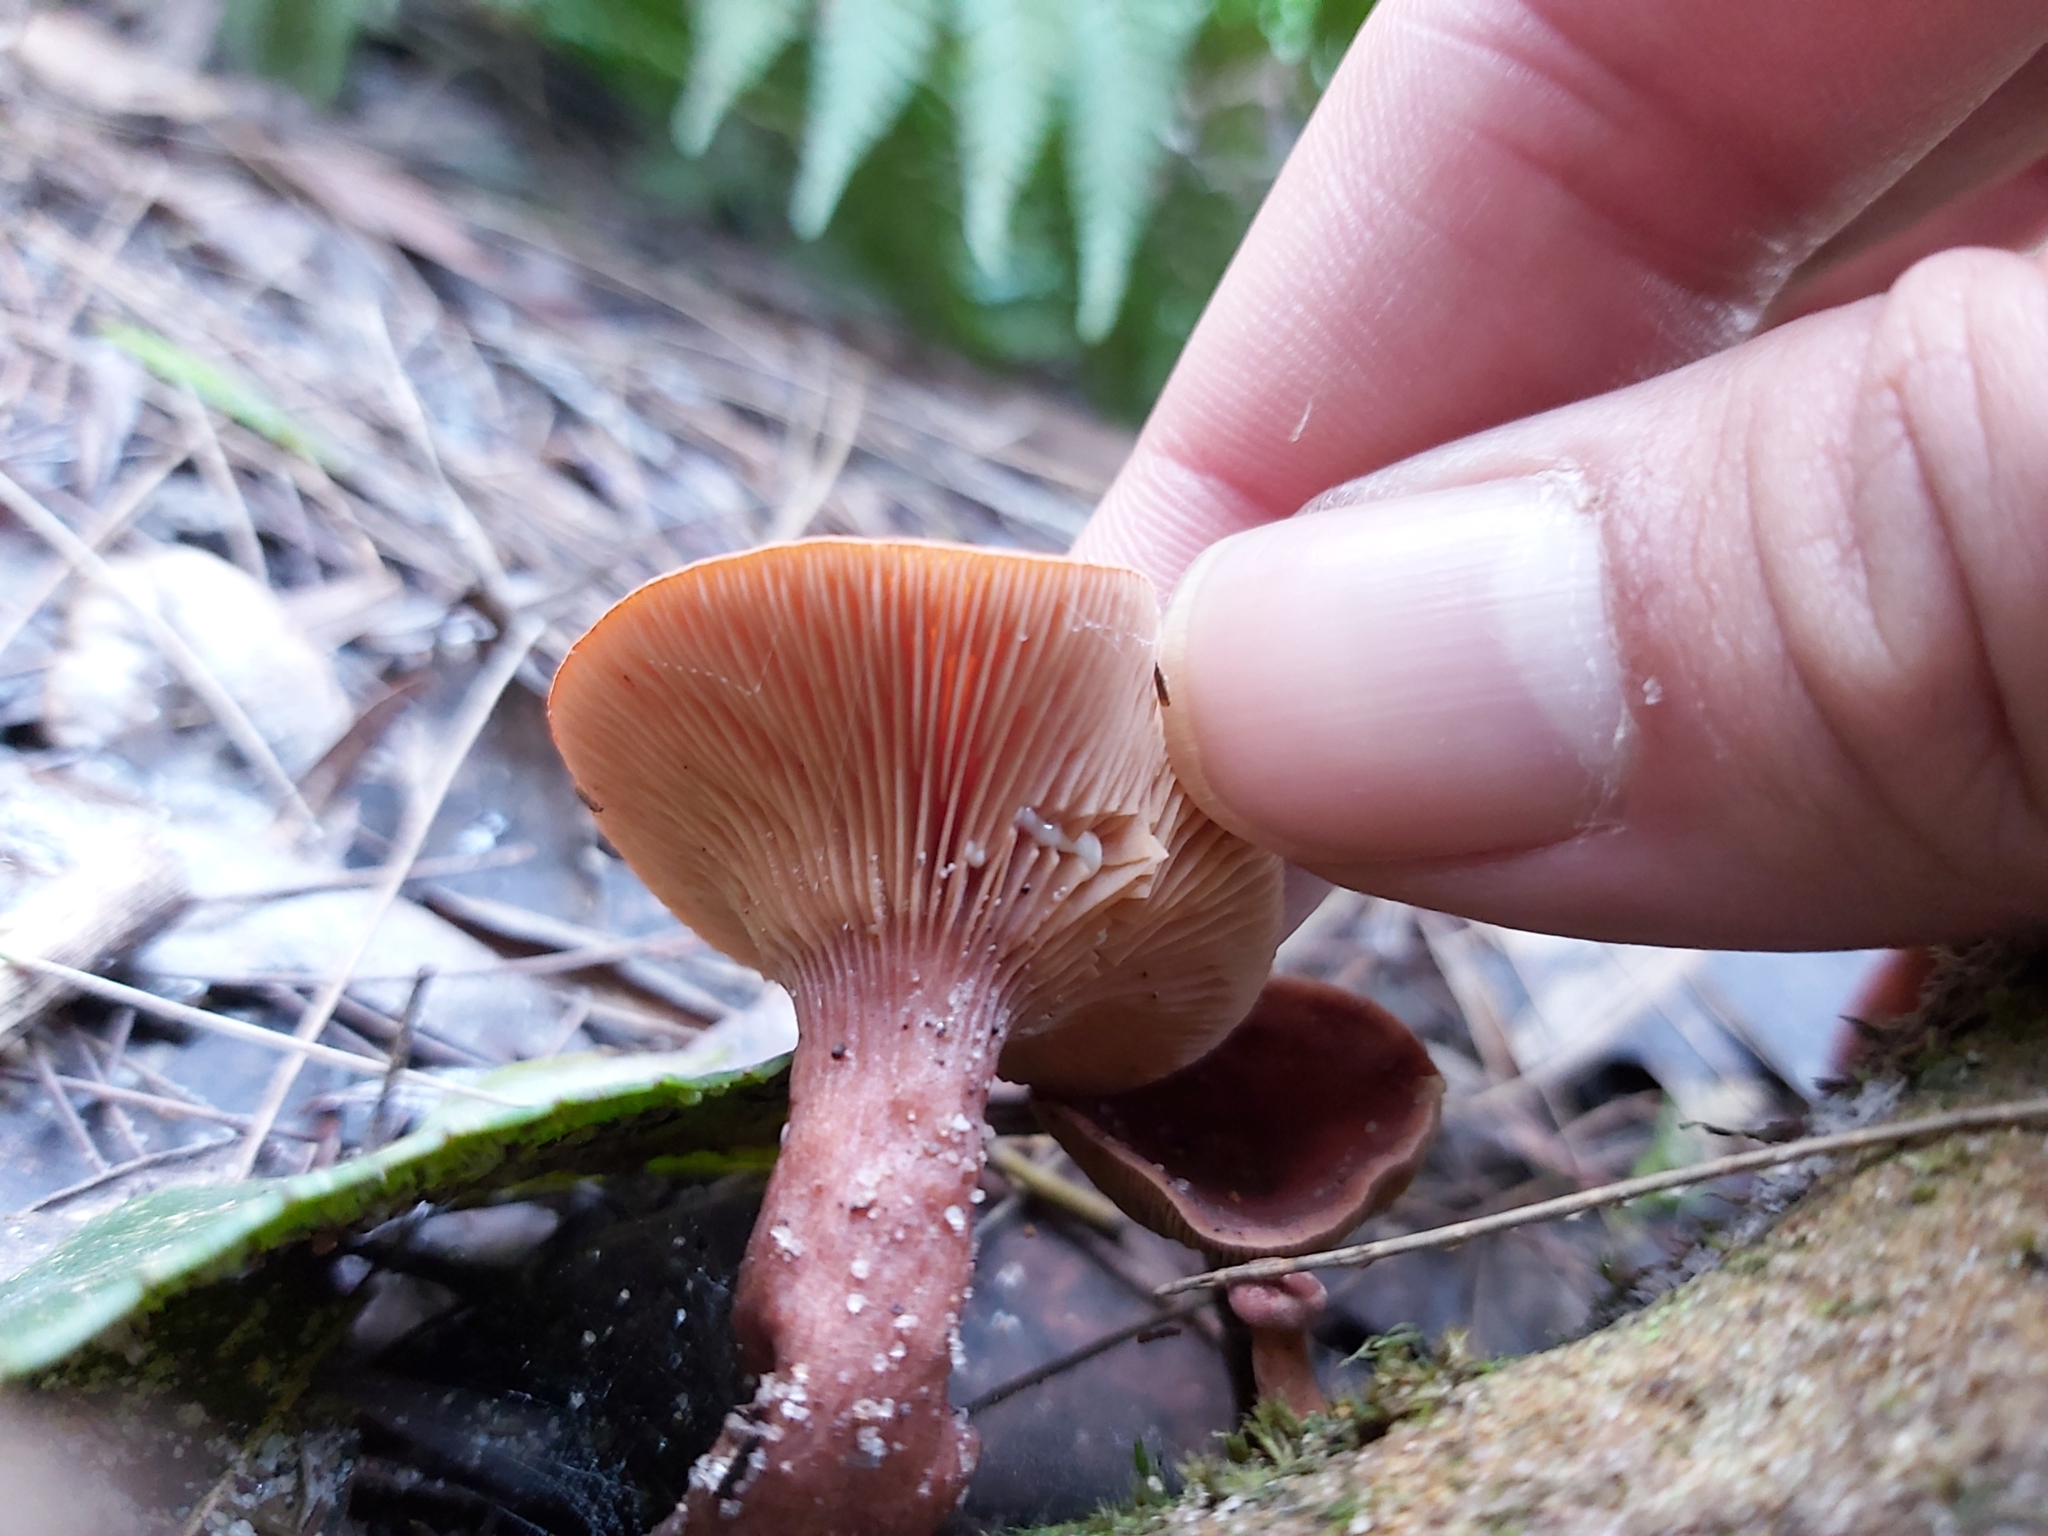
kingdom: Fungi
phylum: Basidiomycota
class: Agaricomycetes
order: Russulales
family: Russulaceae
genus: Lactarius
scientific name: Lactarius eucalypti
